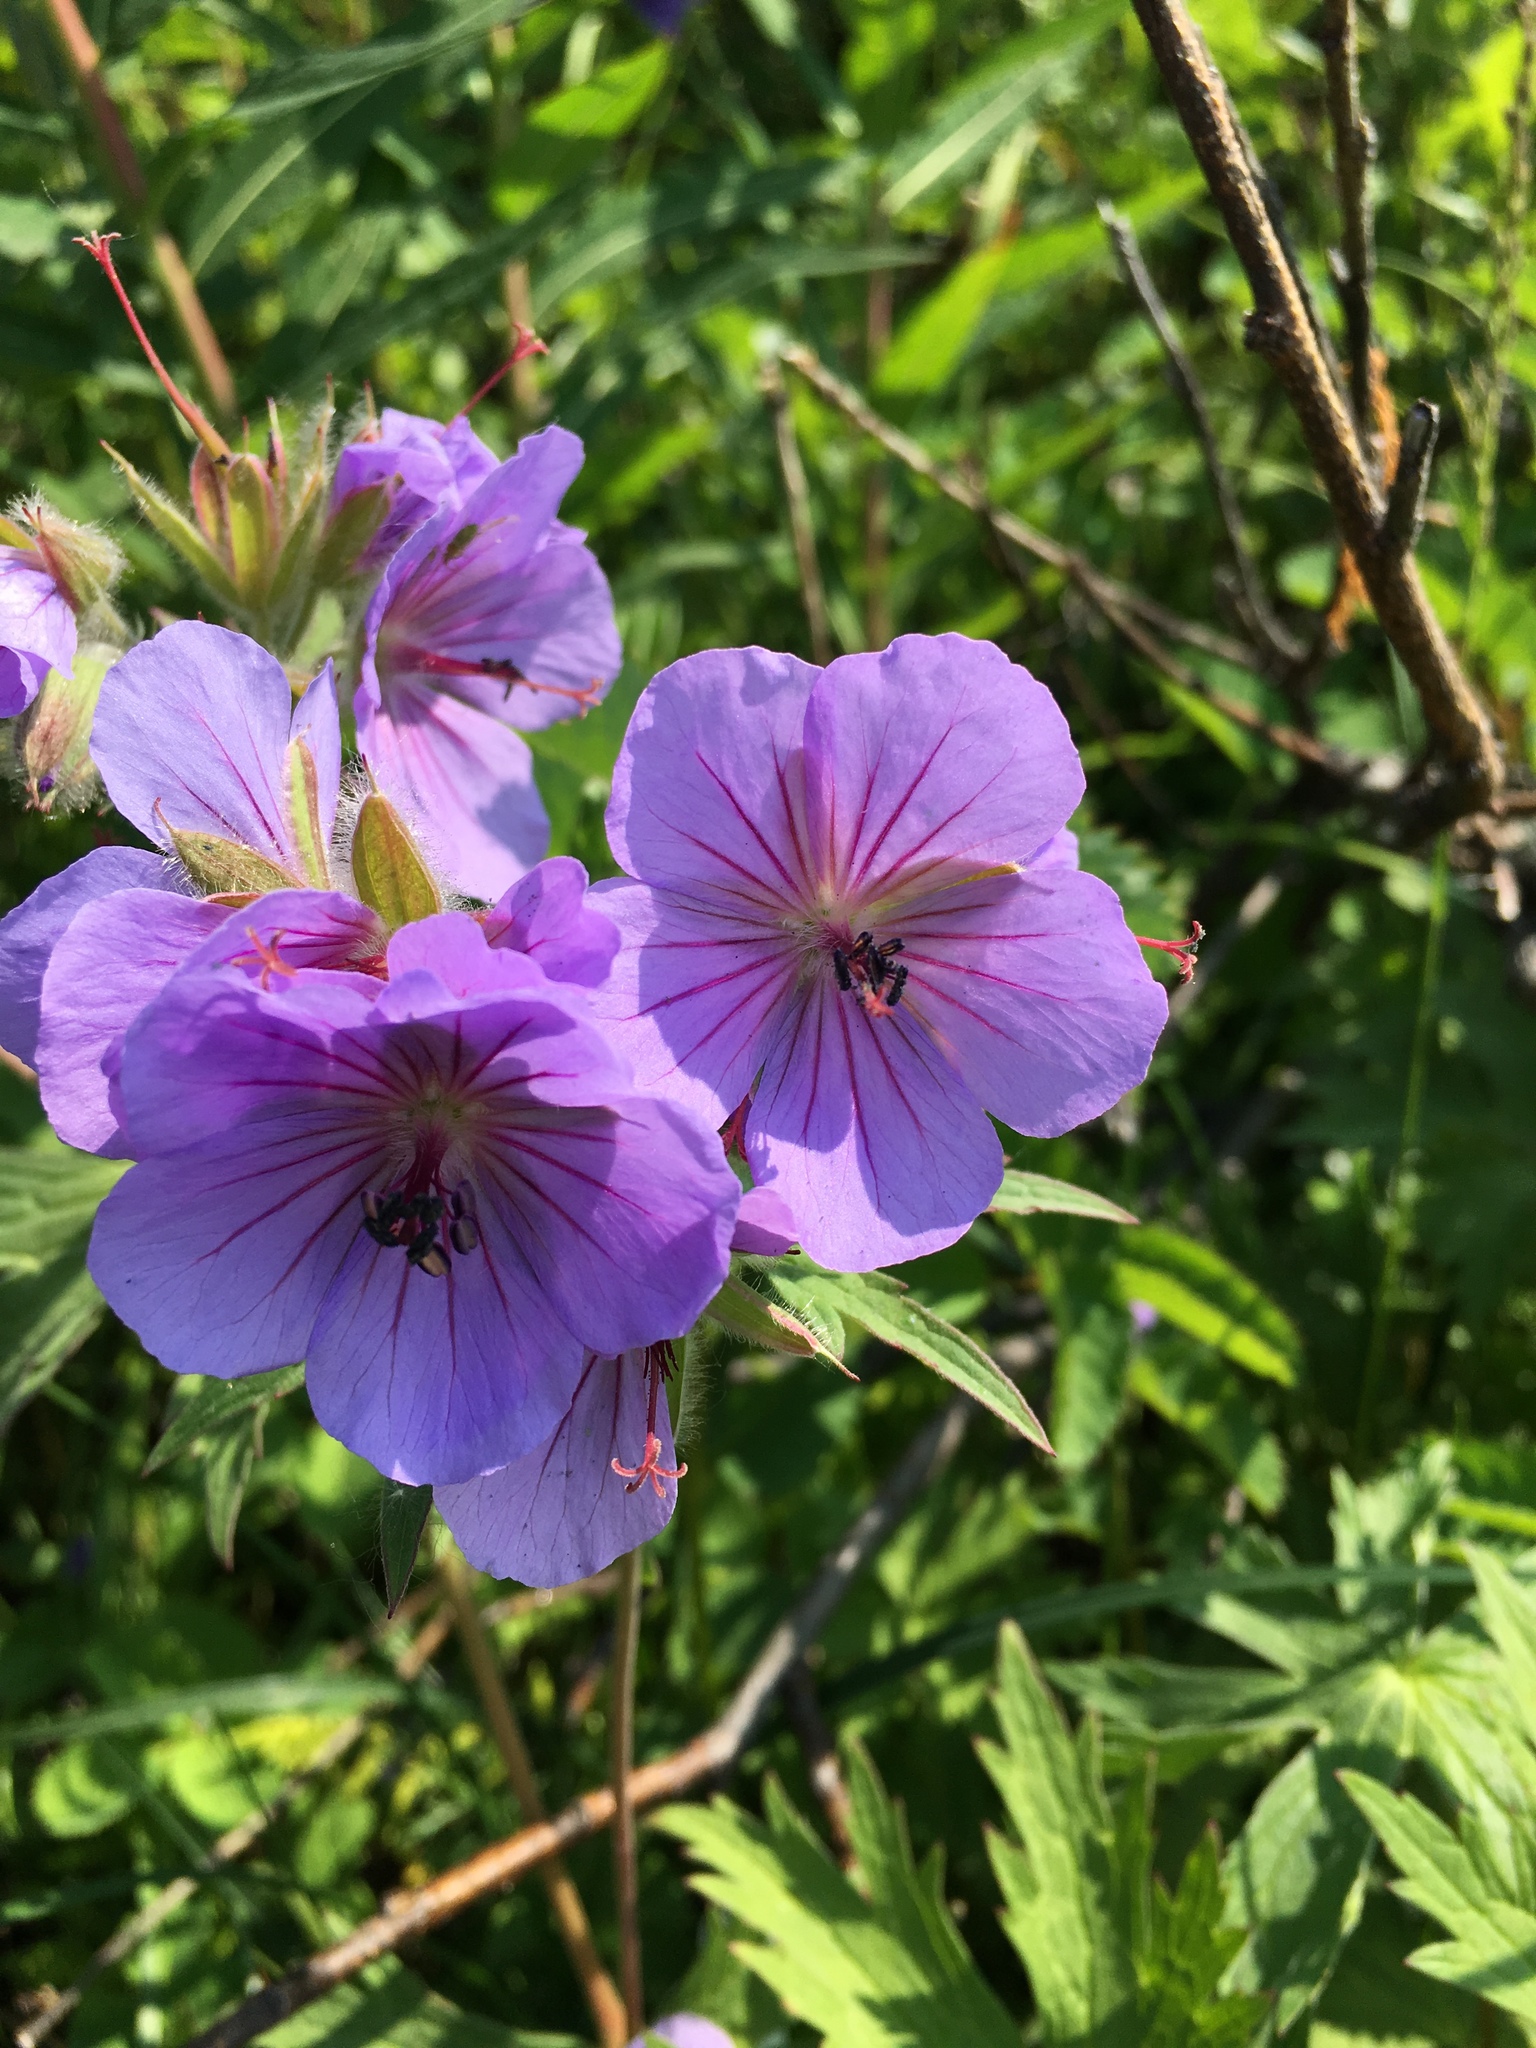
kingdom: Plantae
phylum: Tracheophyta
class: Magnoliopsida
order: Geraniales
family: Geraniaceae
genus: Geranium
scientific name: Geranium erianthum
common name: Northern crane's-bill
